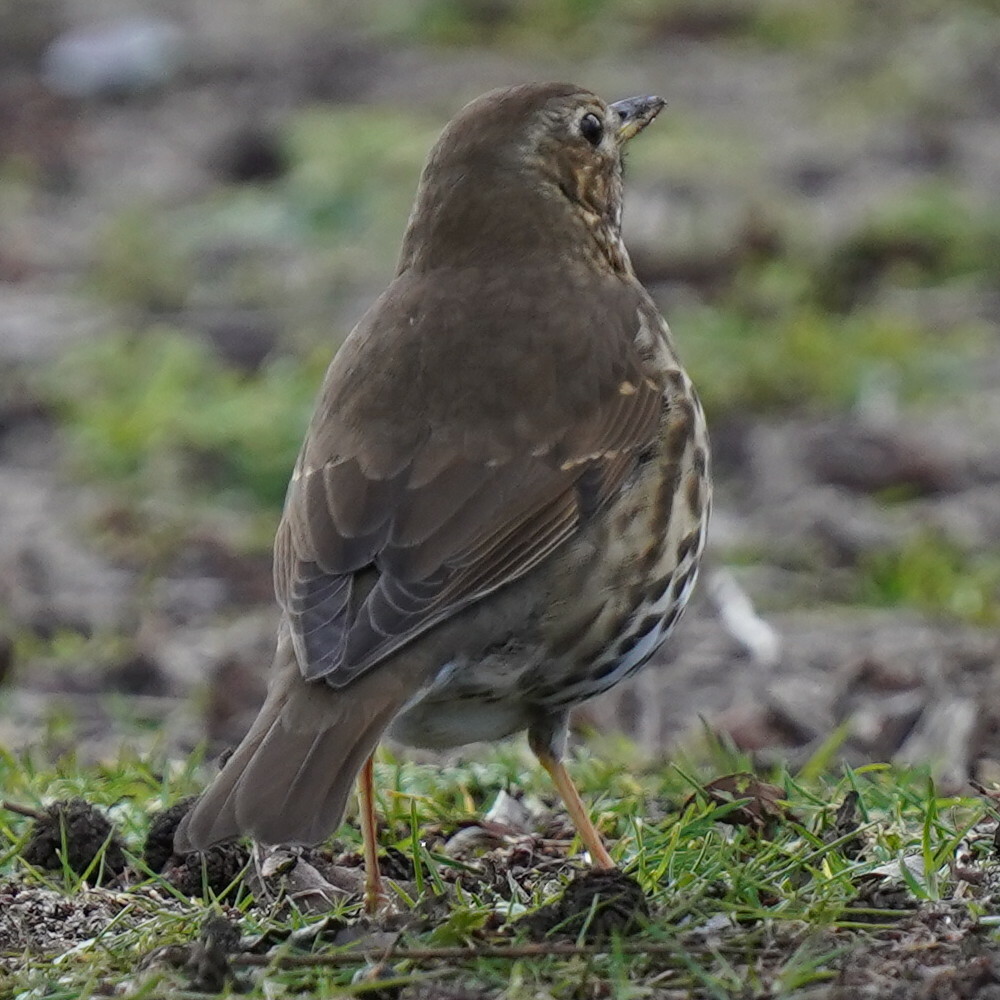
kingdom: Animalia
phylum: Chordata
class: Aves
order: Passeriformes
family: Turdidae
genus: Turdus
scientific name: Turdus philomelos
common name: Song thrush
